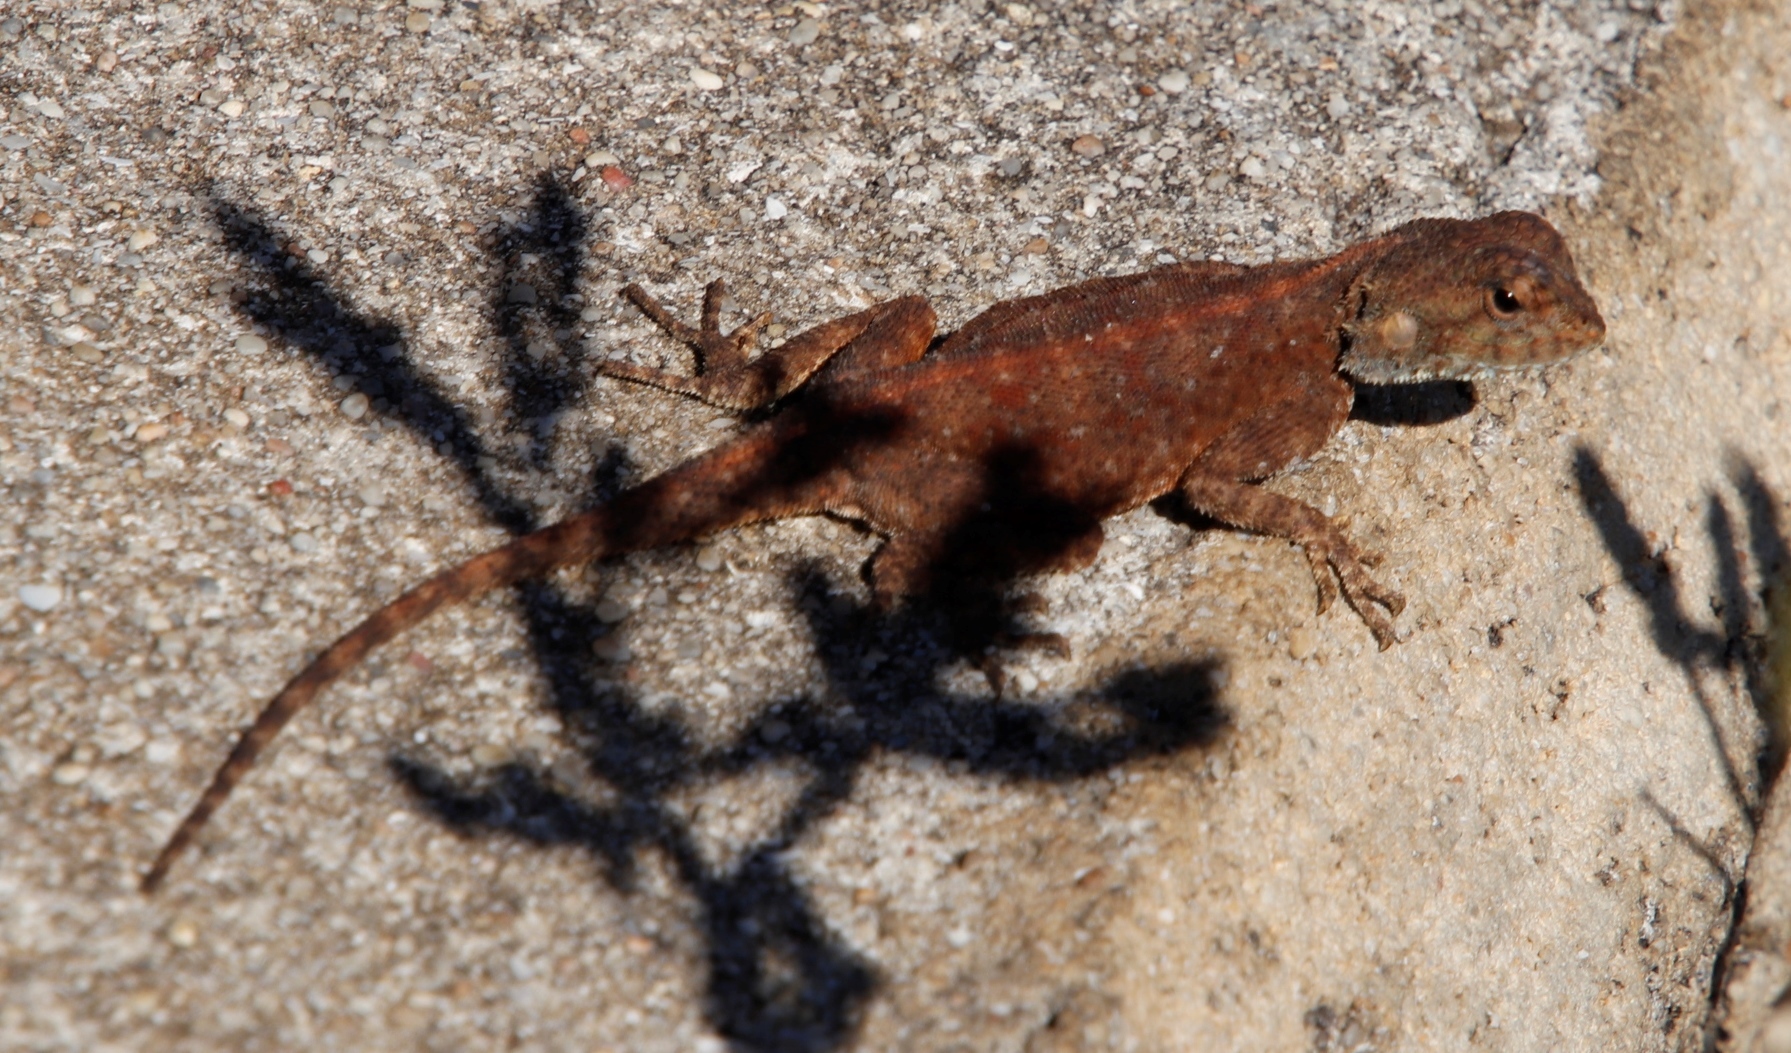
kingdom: Animalia
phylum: Chordata
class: Squamata
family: Agamidae
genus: Agama
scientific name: Agama atra
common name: Southern african rock agama
